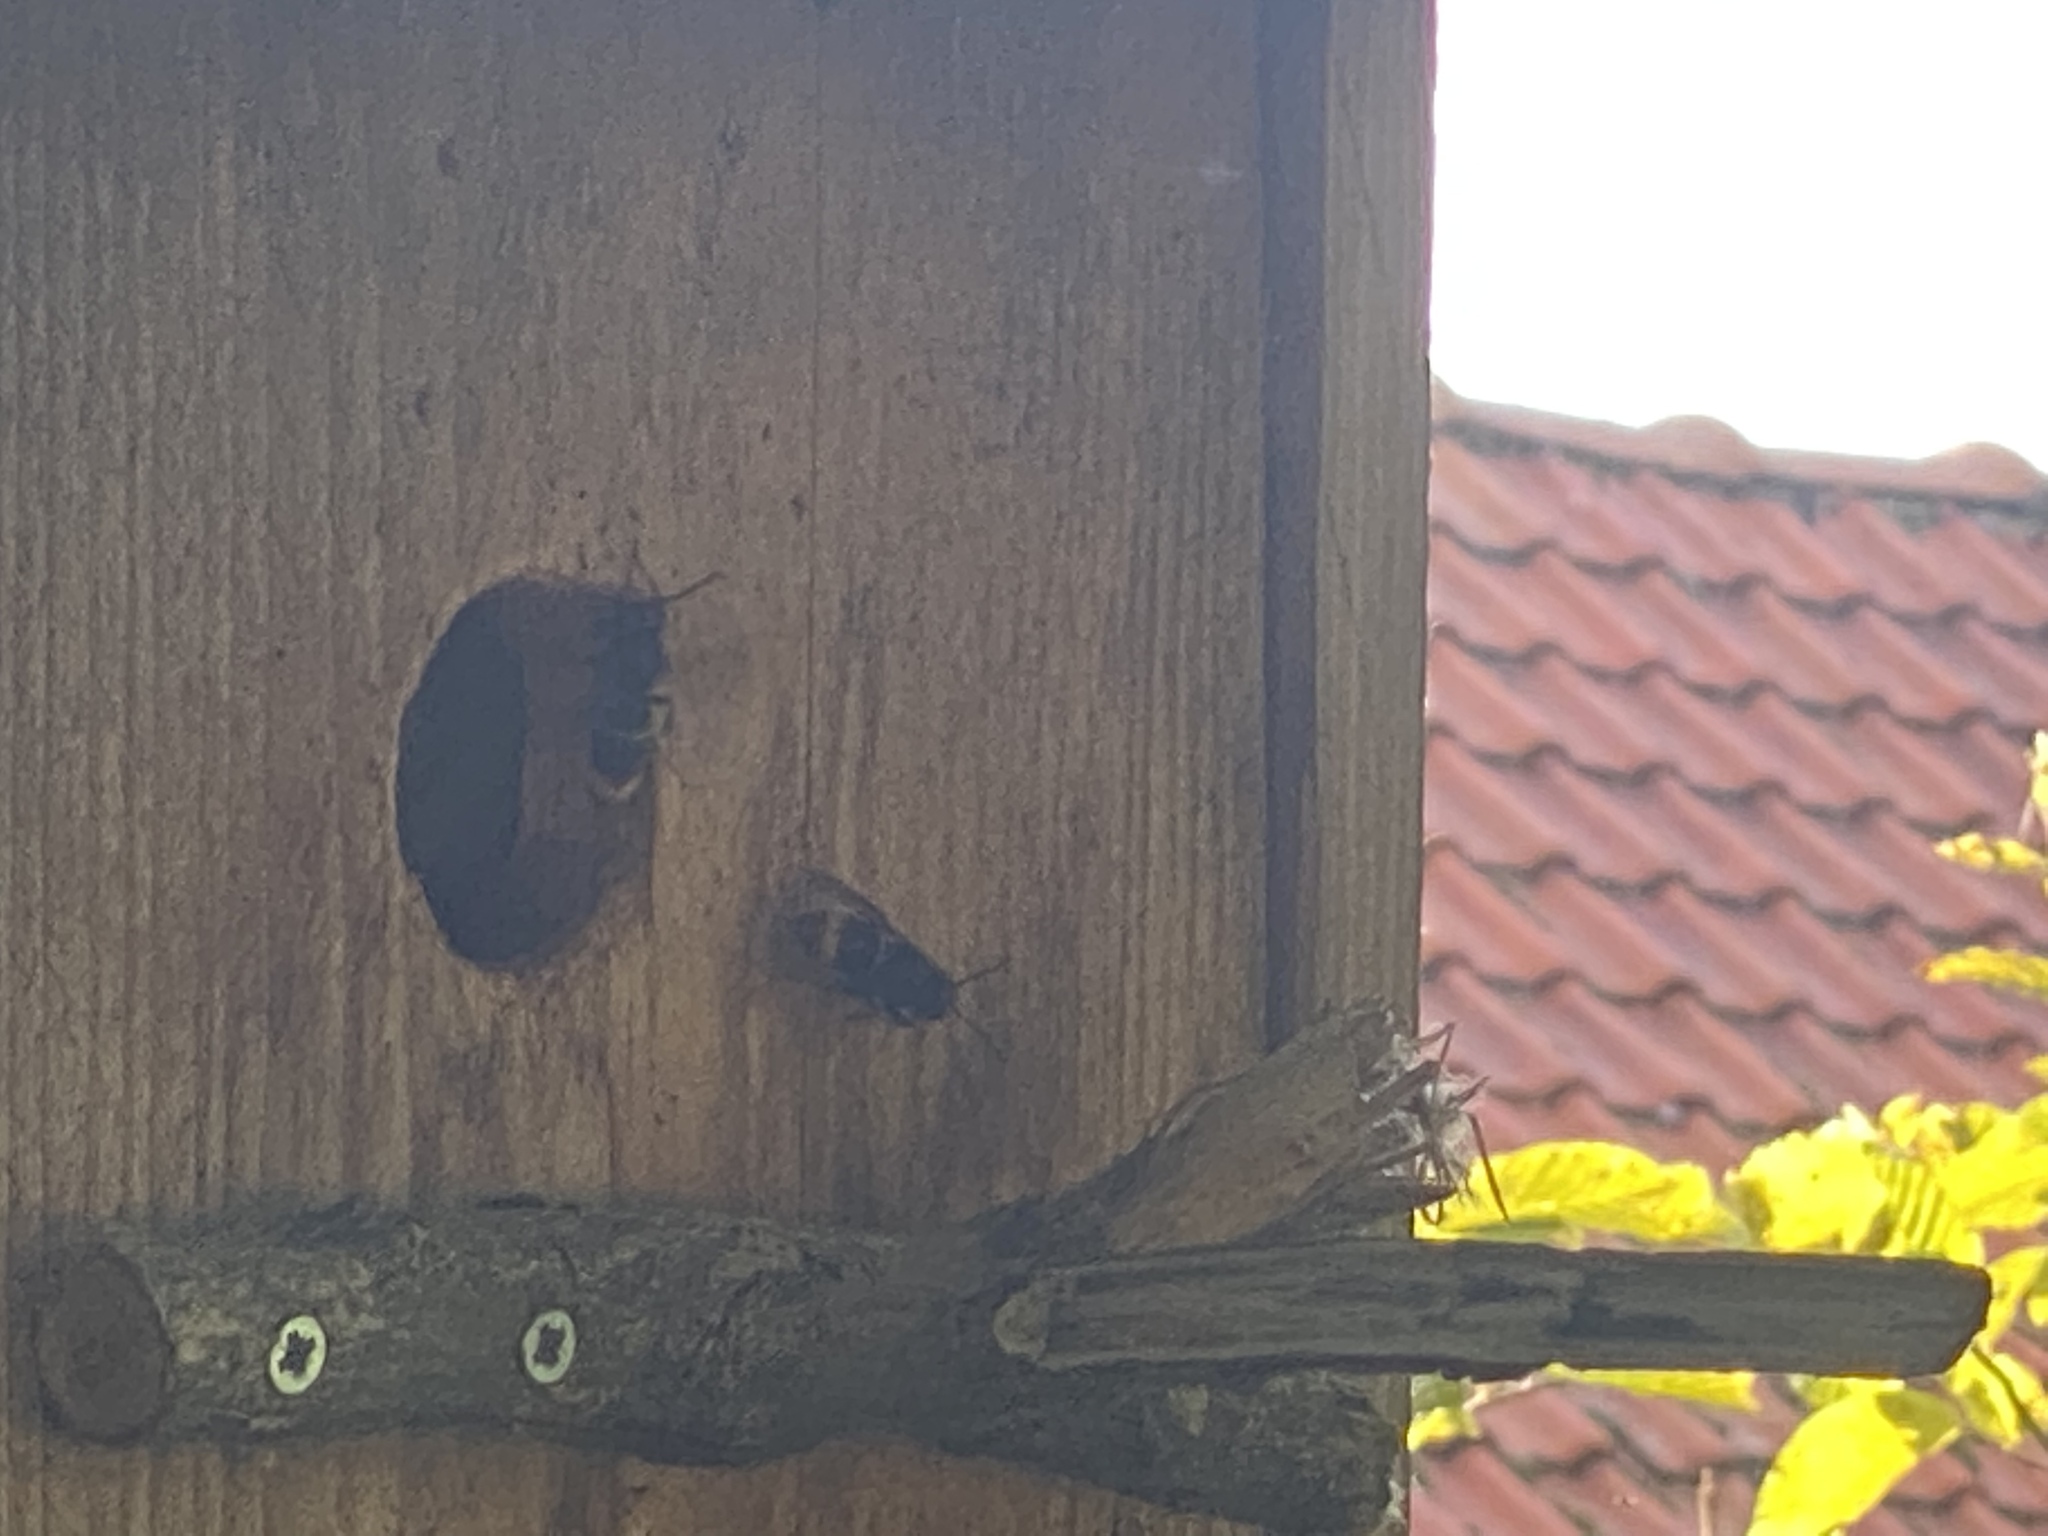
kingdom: Animalia
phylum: Arthropoda
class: Insecta
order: Hymenoptera
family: Vespidae
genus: Vespa
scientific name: Vespa velutina
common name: Asian hornet
